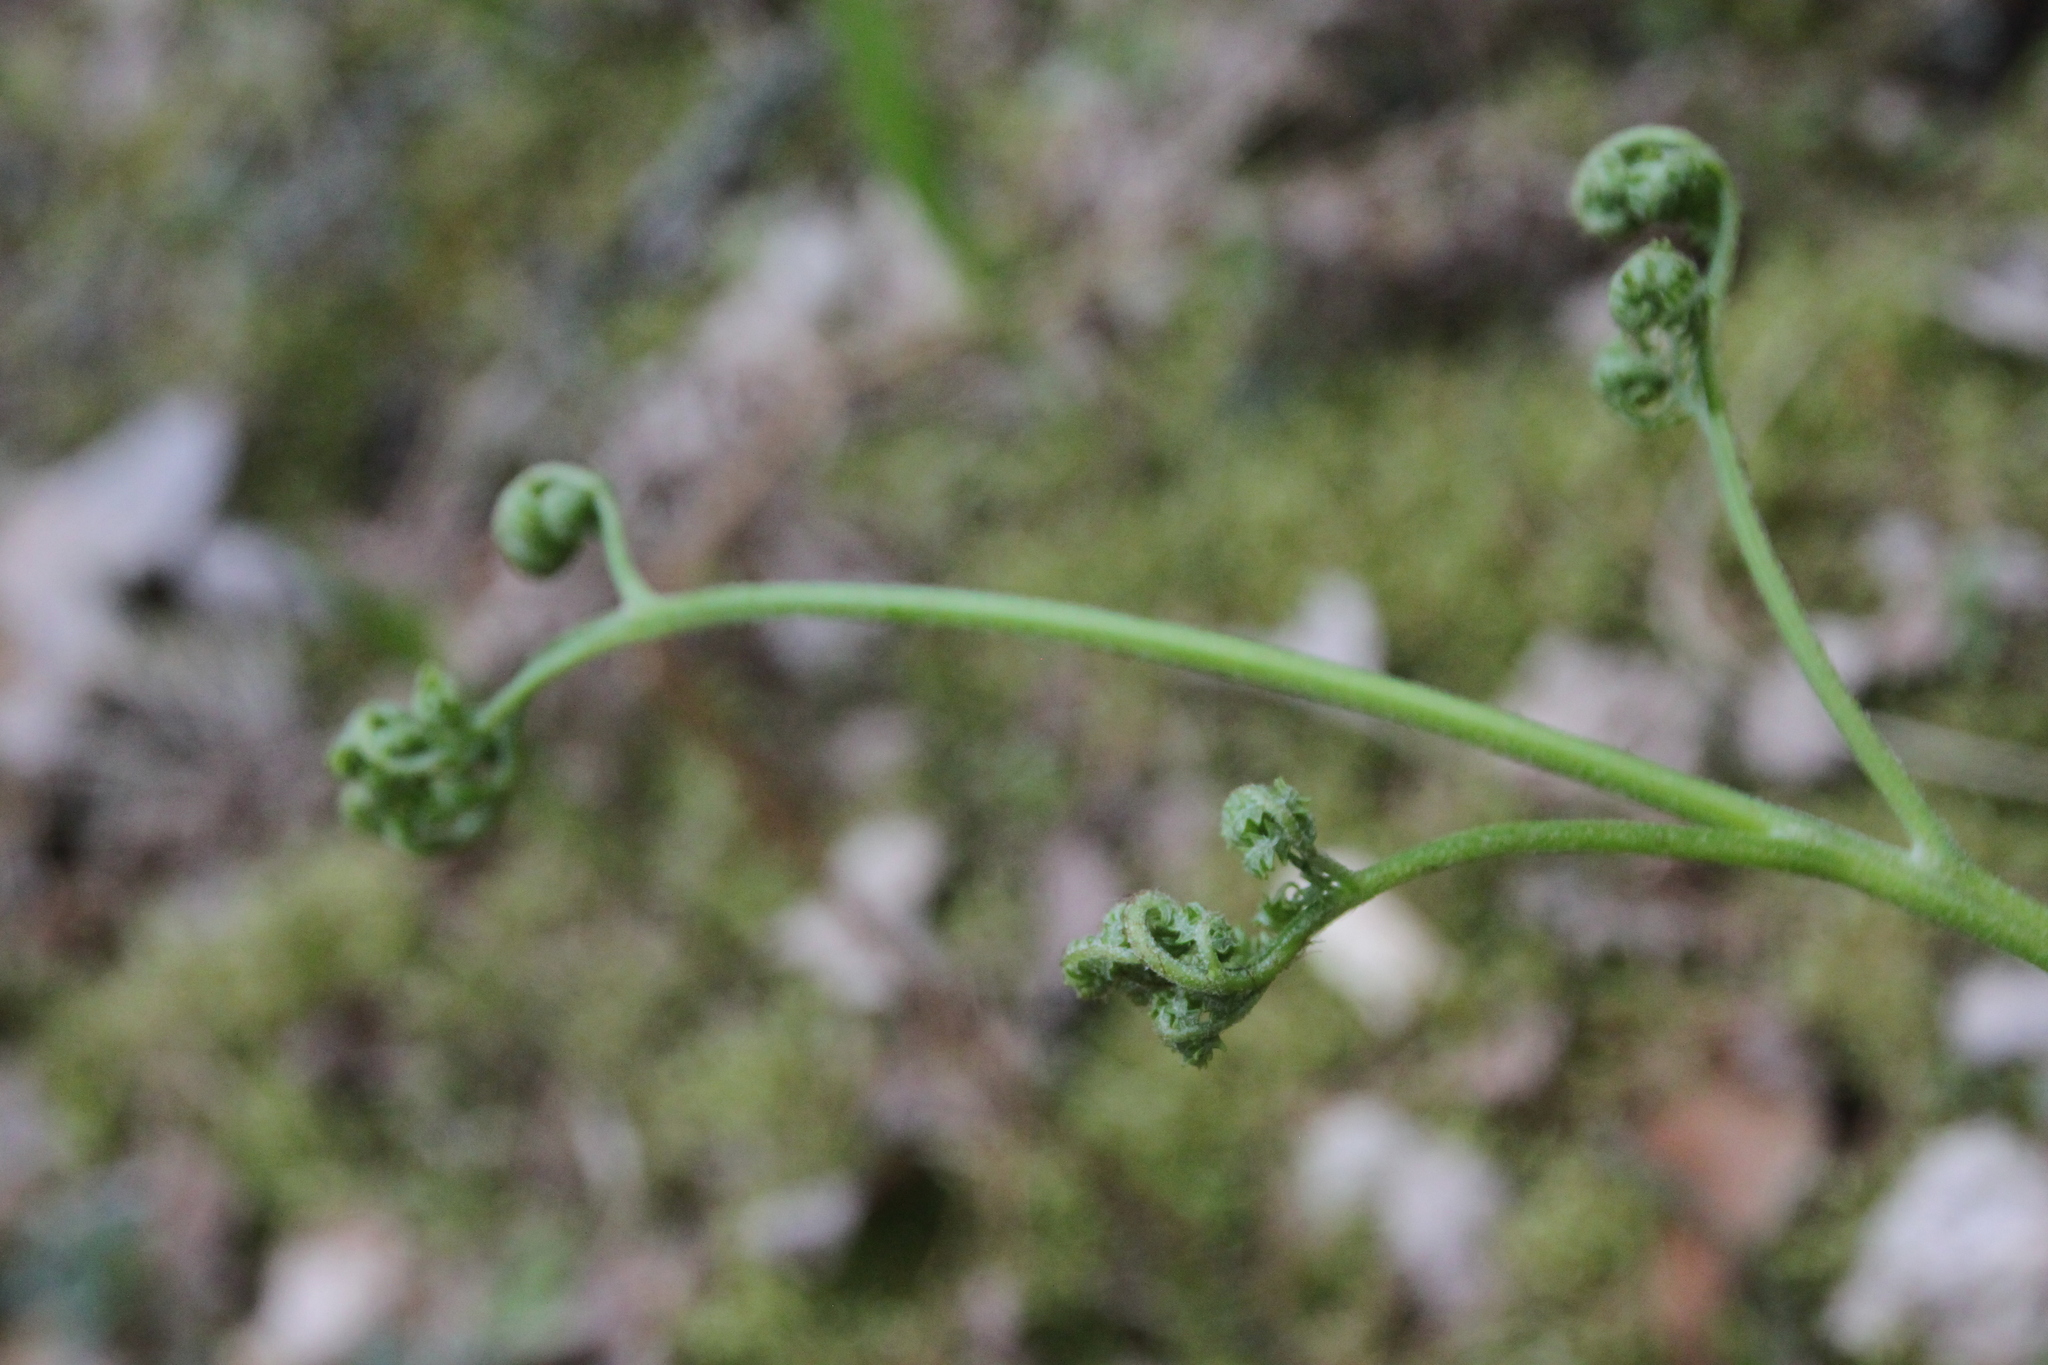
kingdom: Plantae
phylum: Tracheophyta
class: Polypodiopsida
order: Polypodiales
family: Dennstaedtiaceae
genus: Pteridium
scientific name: Pteridium aquilinum
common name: Bracken
